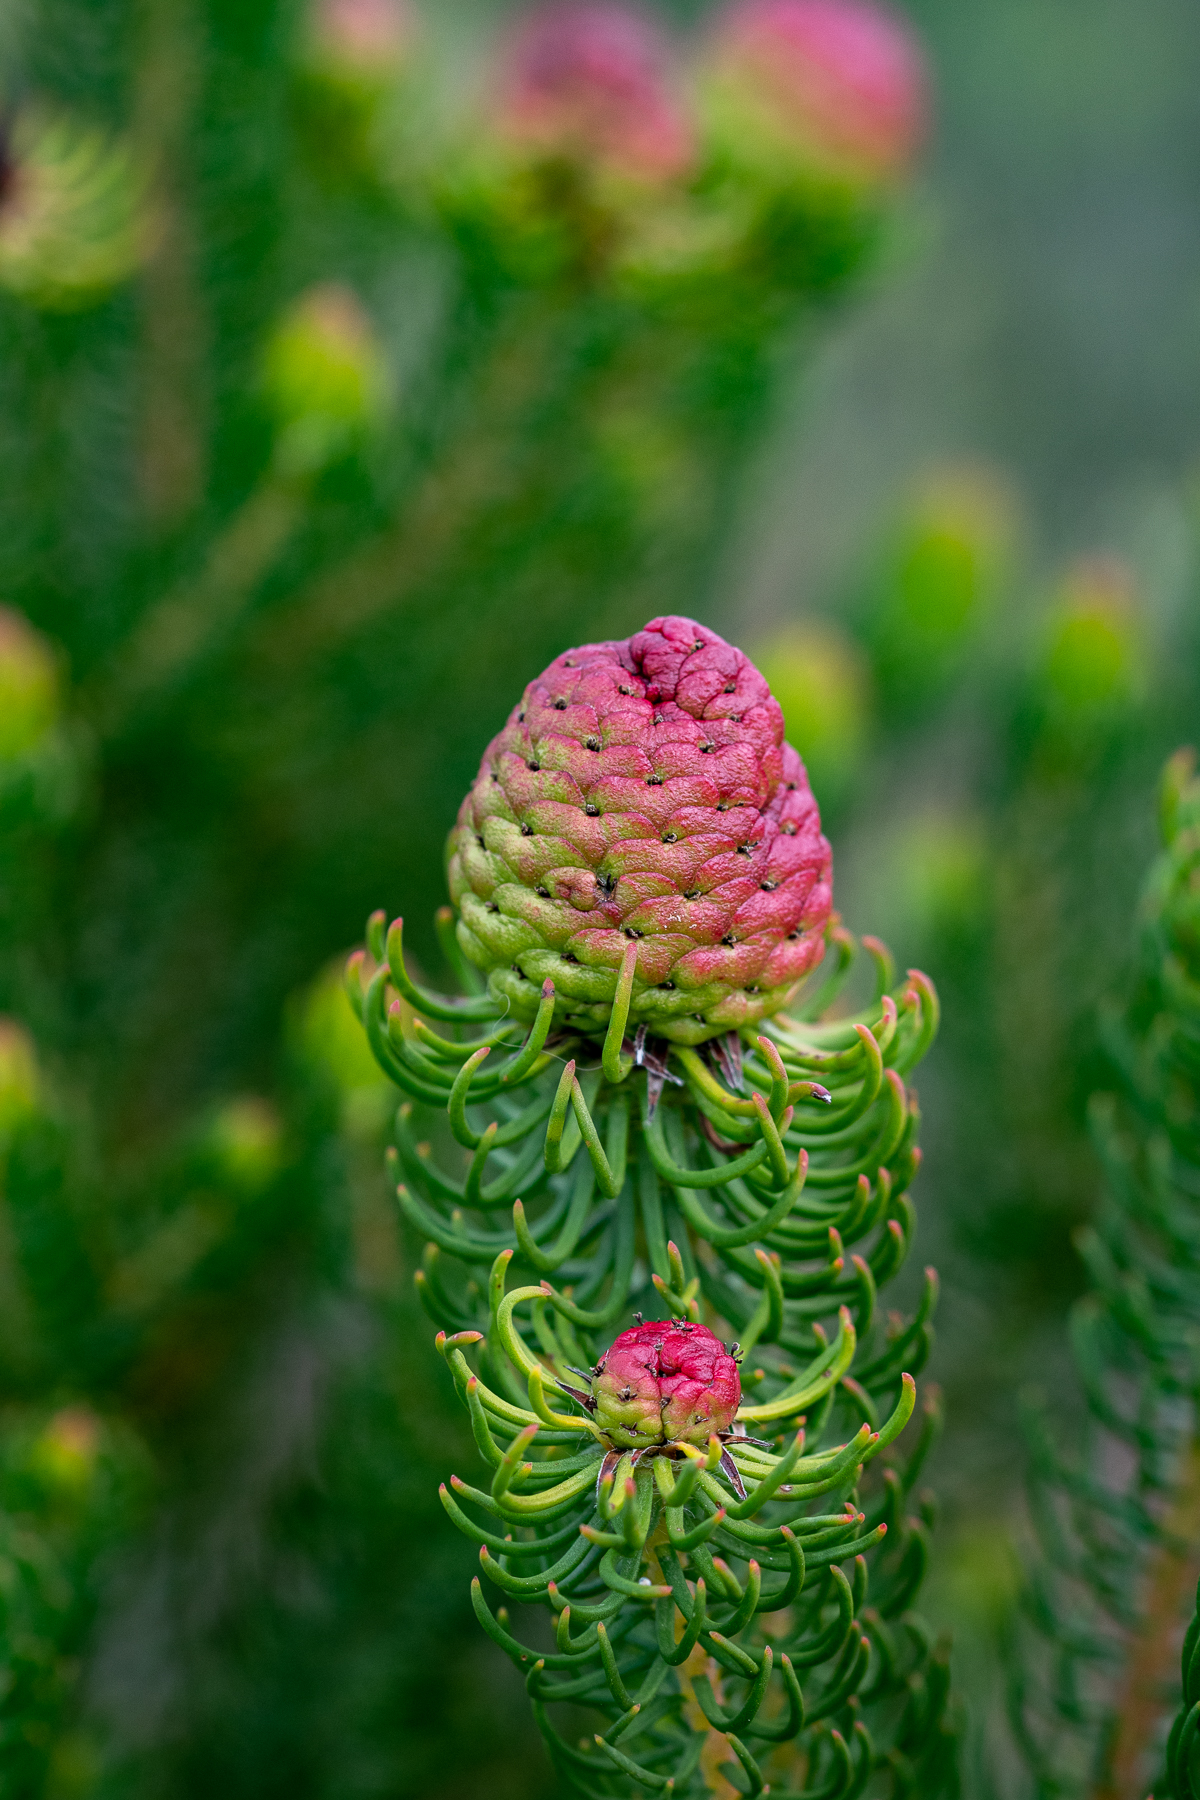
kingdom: Plantae
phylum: Tracheophyta
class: Magnoliopsida
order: Proteales
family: Proteaceae
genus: Leucadendron
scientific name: Leucadendron teretifolium
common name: Needle-leaf conebush
